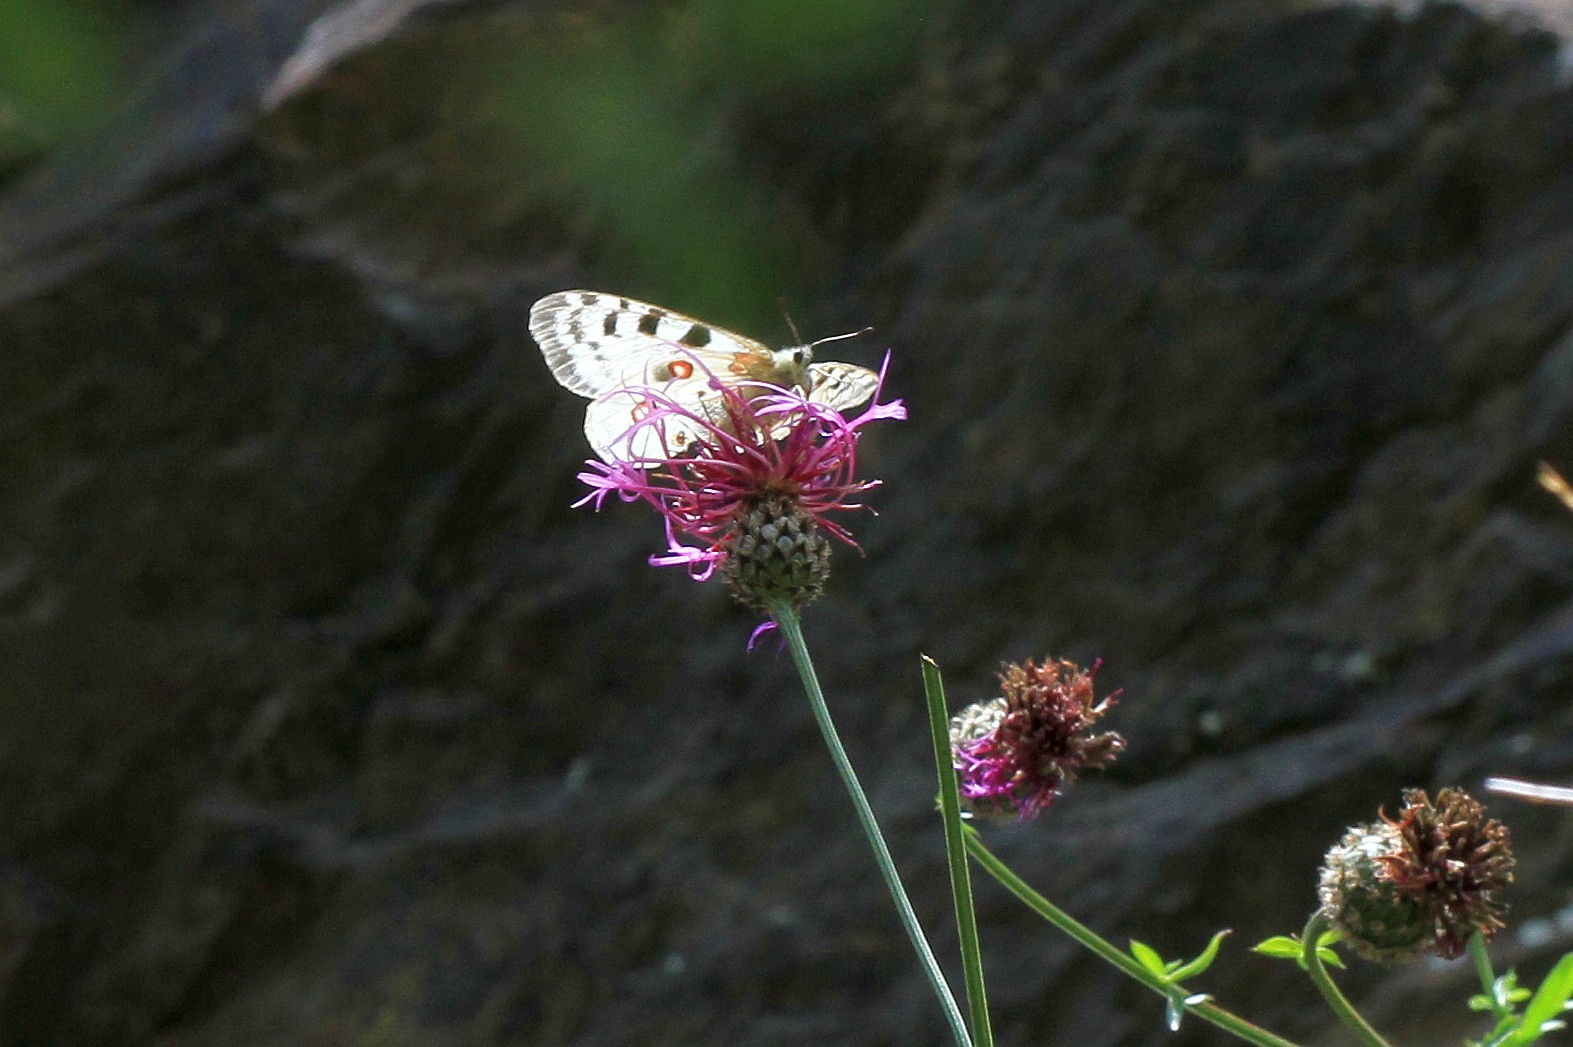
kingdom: Animalia
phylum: Arthropoda
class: Insecta
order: Lepidoptera
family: Papilionidae
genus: Parnassius
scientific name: Parnassius apollo
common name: Apollo
